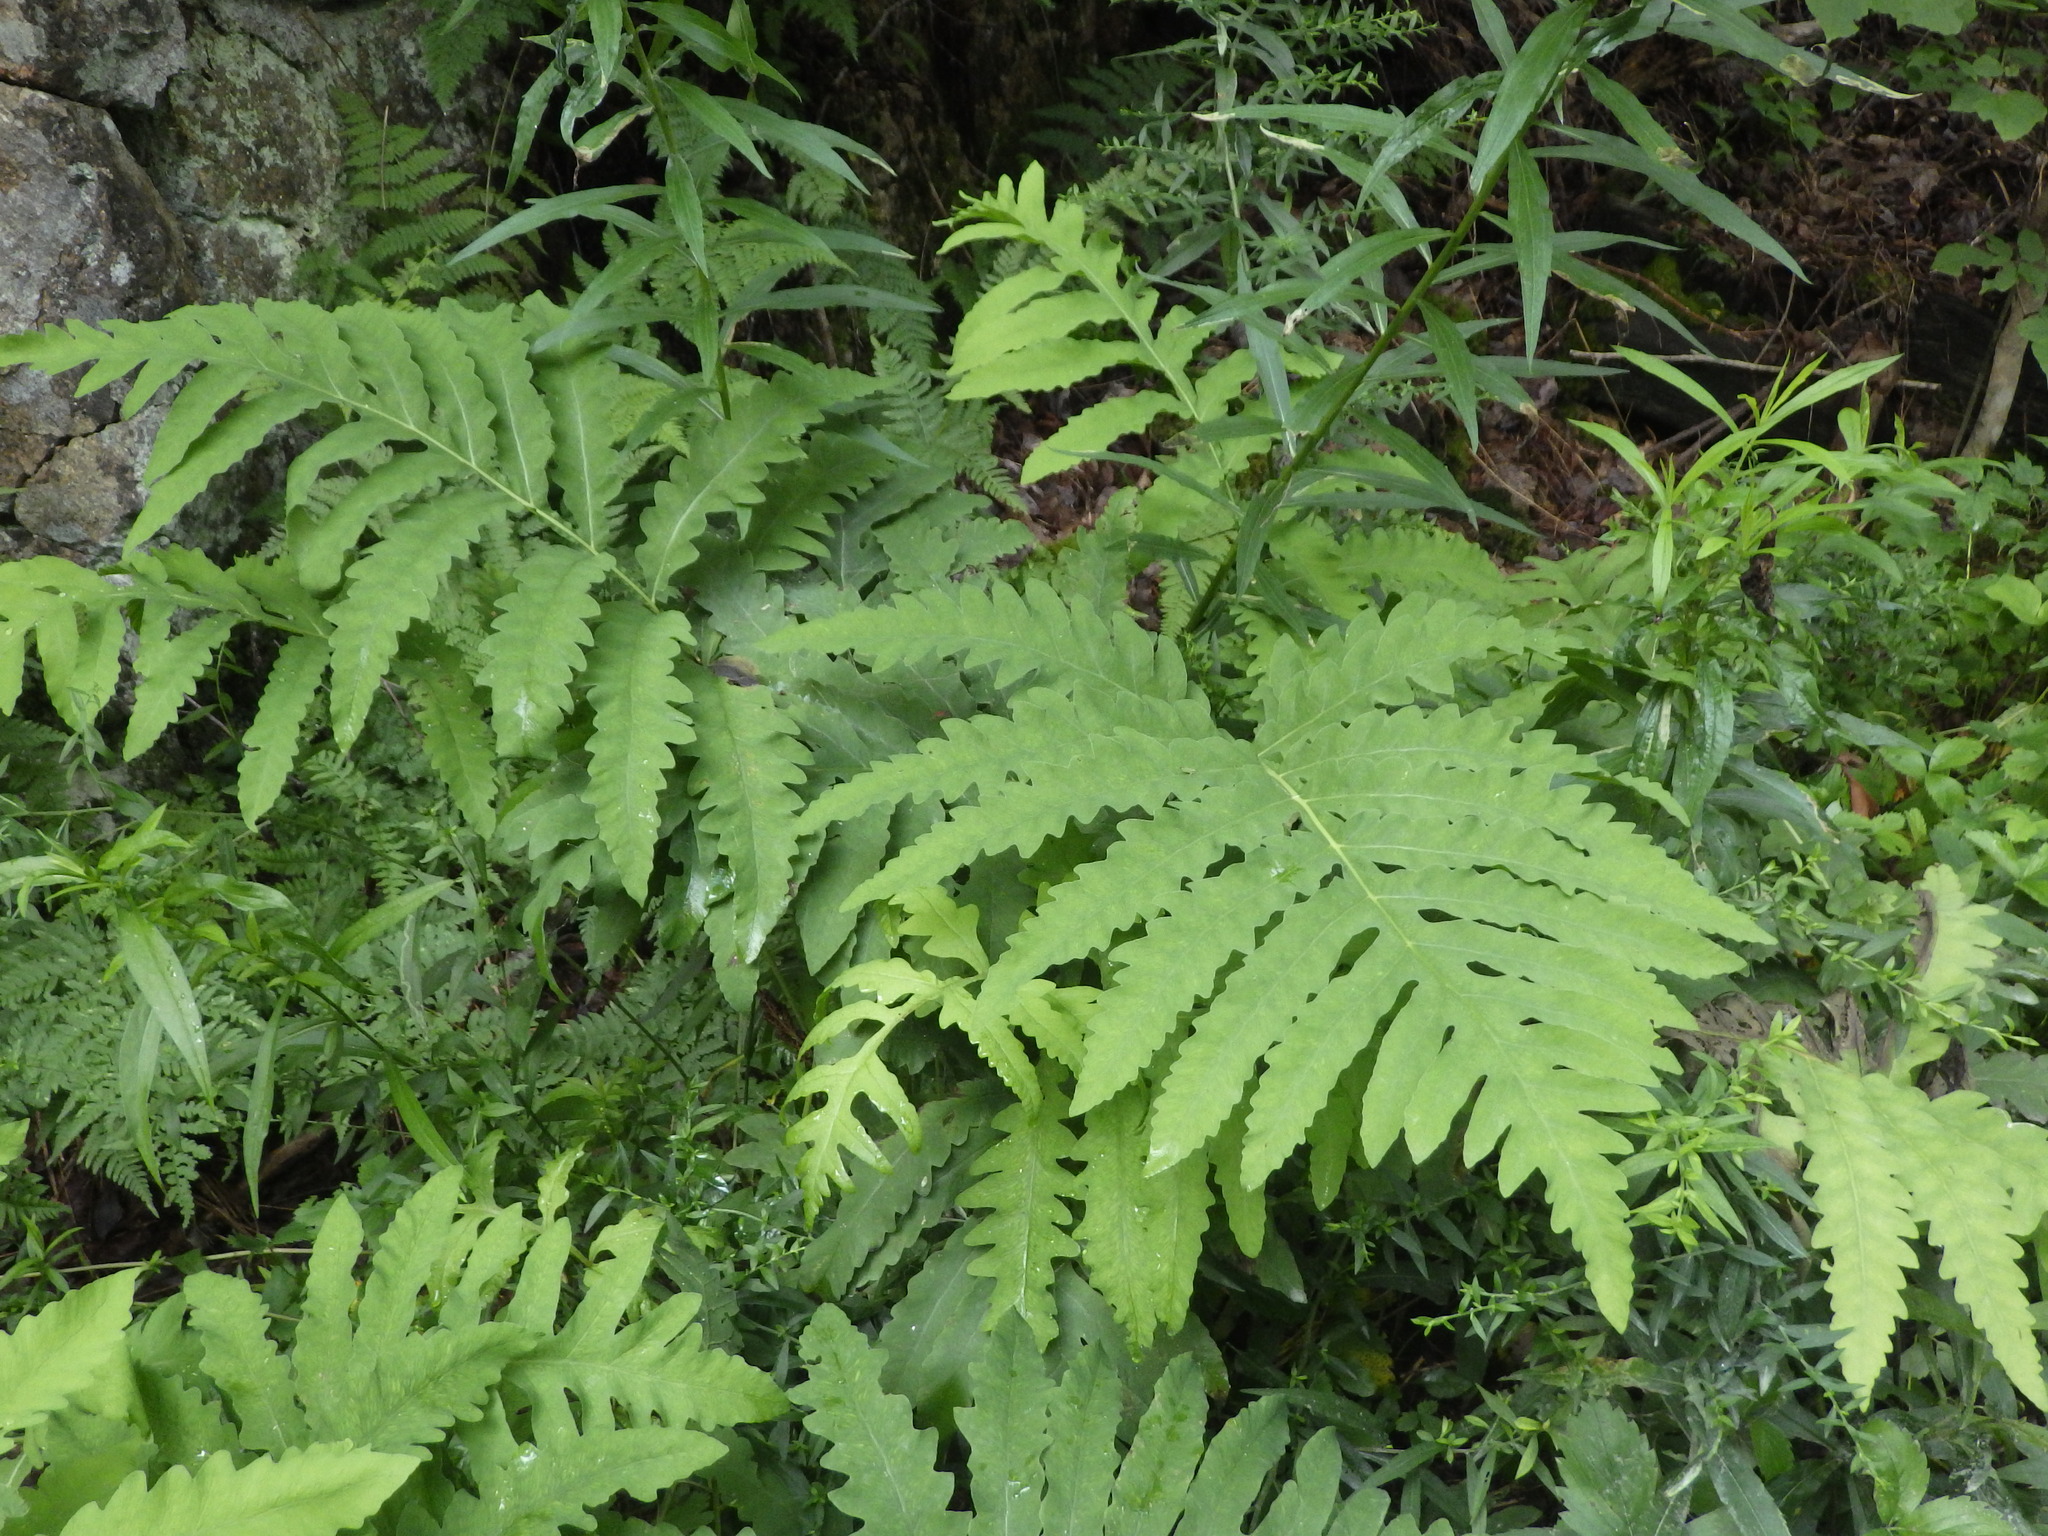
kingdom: Plantae
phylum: Tracheophyta
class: Polypodiopsida
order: Polypodiales
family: Onocleaceae
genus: Onoclea
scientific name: Onoclea sensibilis
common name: Sensitive fern
